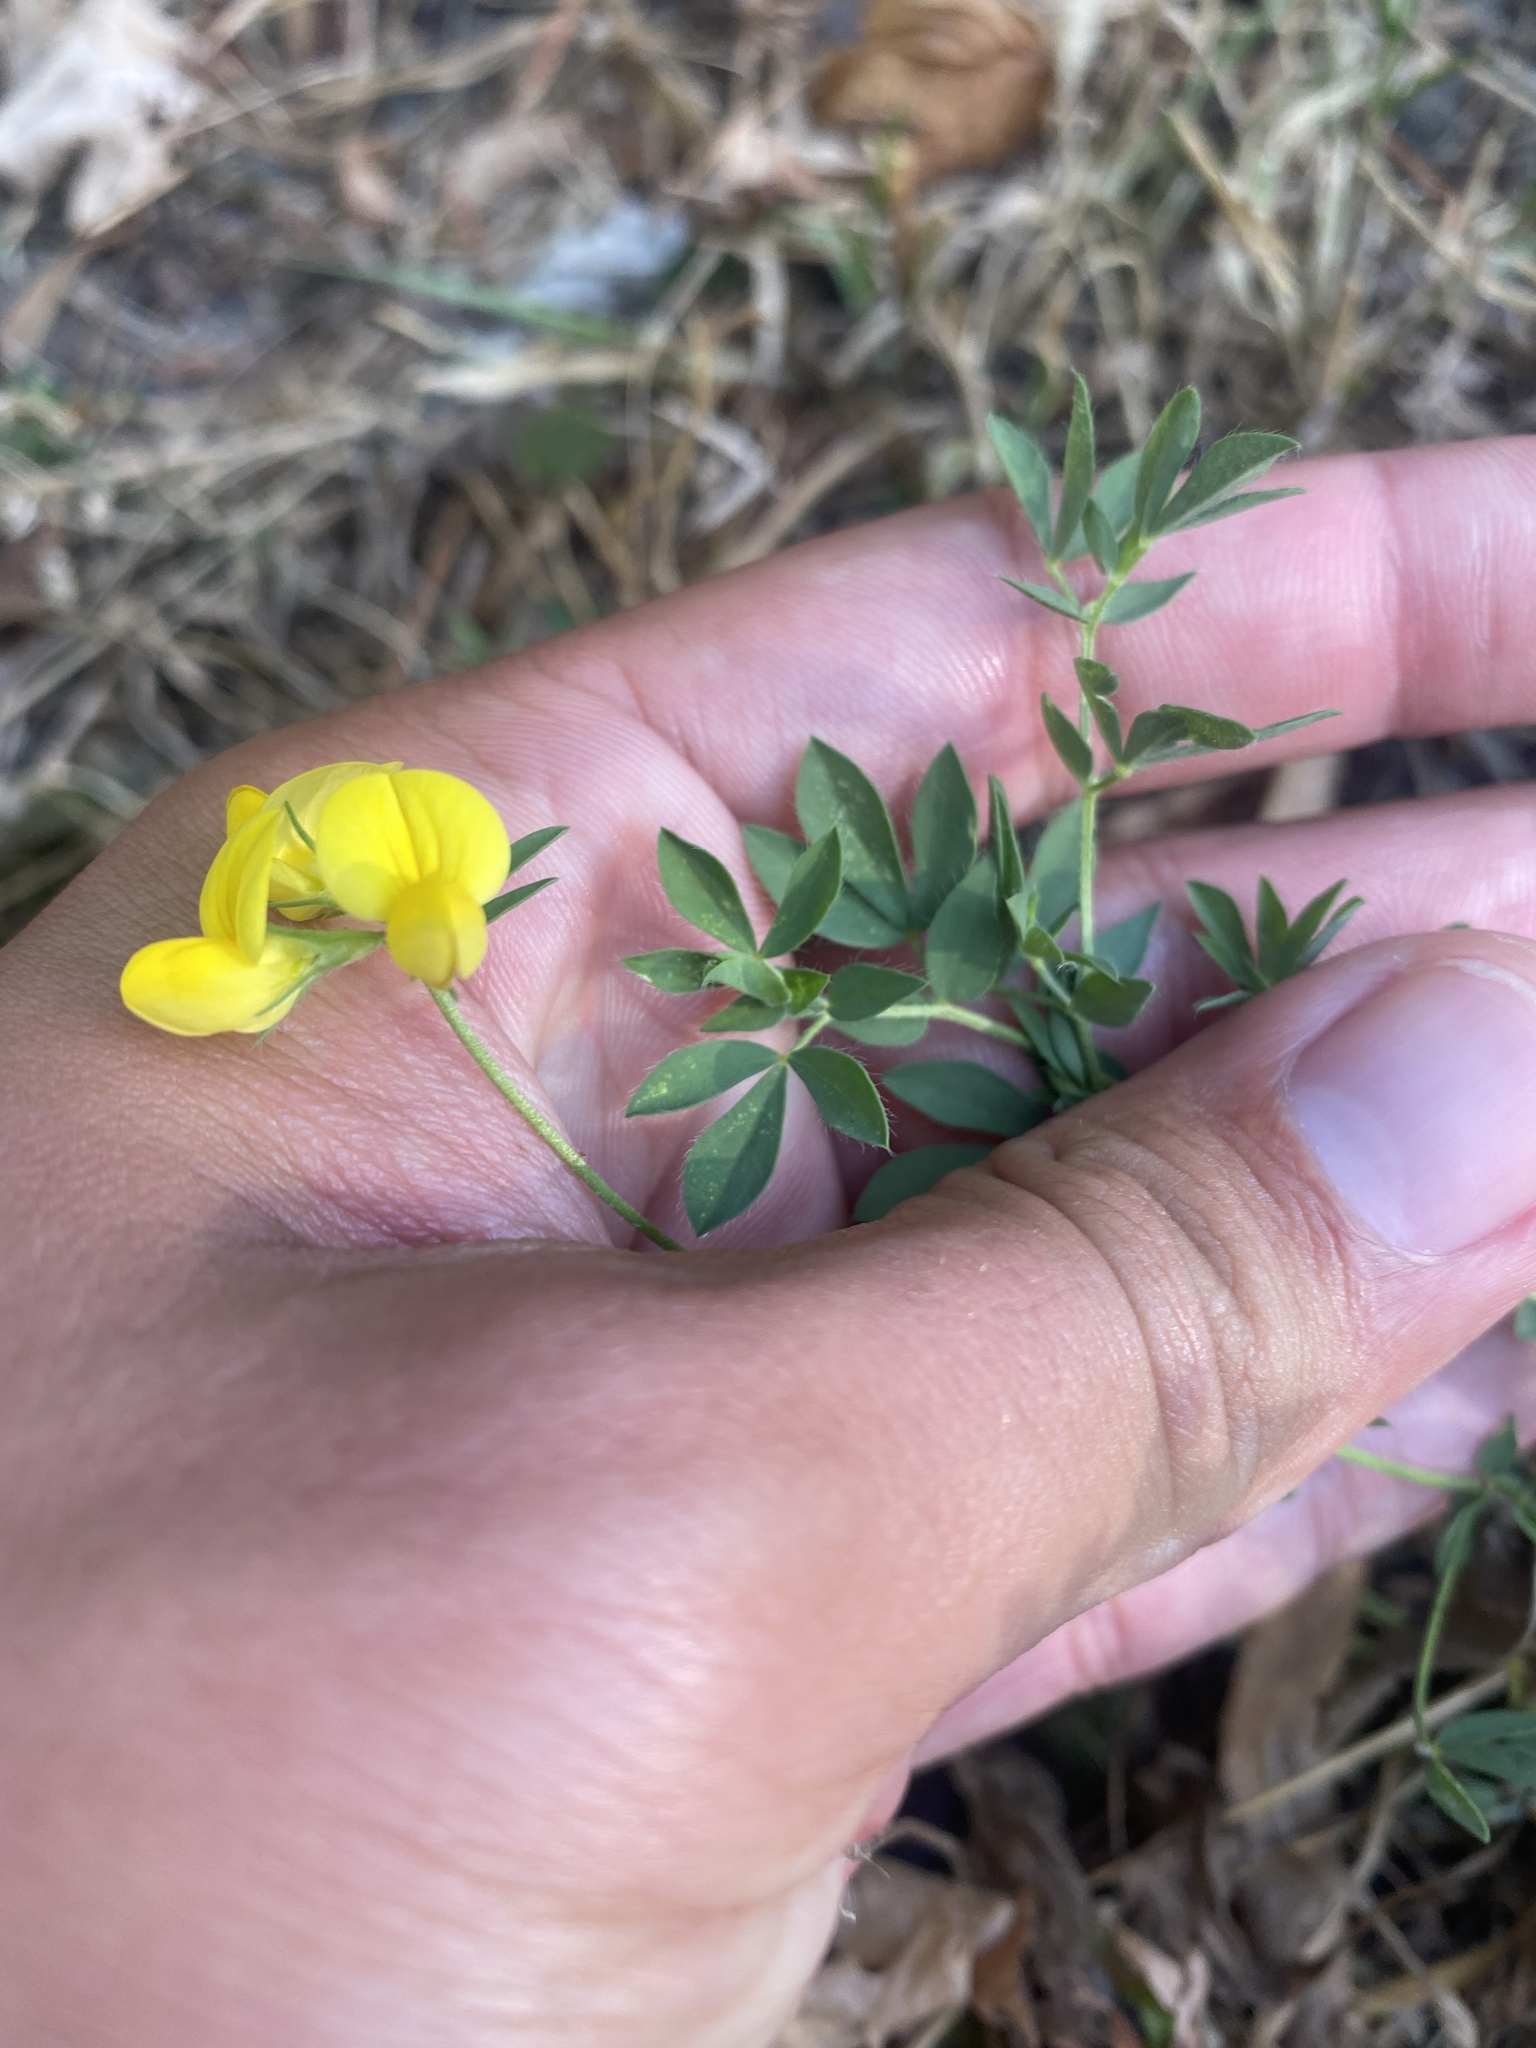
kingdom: Plantae
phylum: Tracheophyta
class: Magnoliopsida
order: Fabales
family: Fabaceae
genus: Lotus
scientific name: Lotus corniculatus
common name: Common bird's-foot-trefoil
